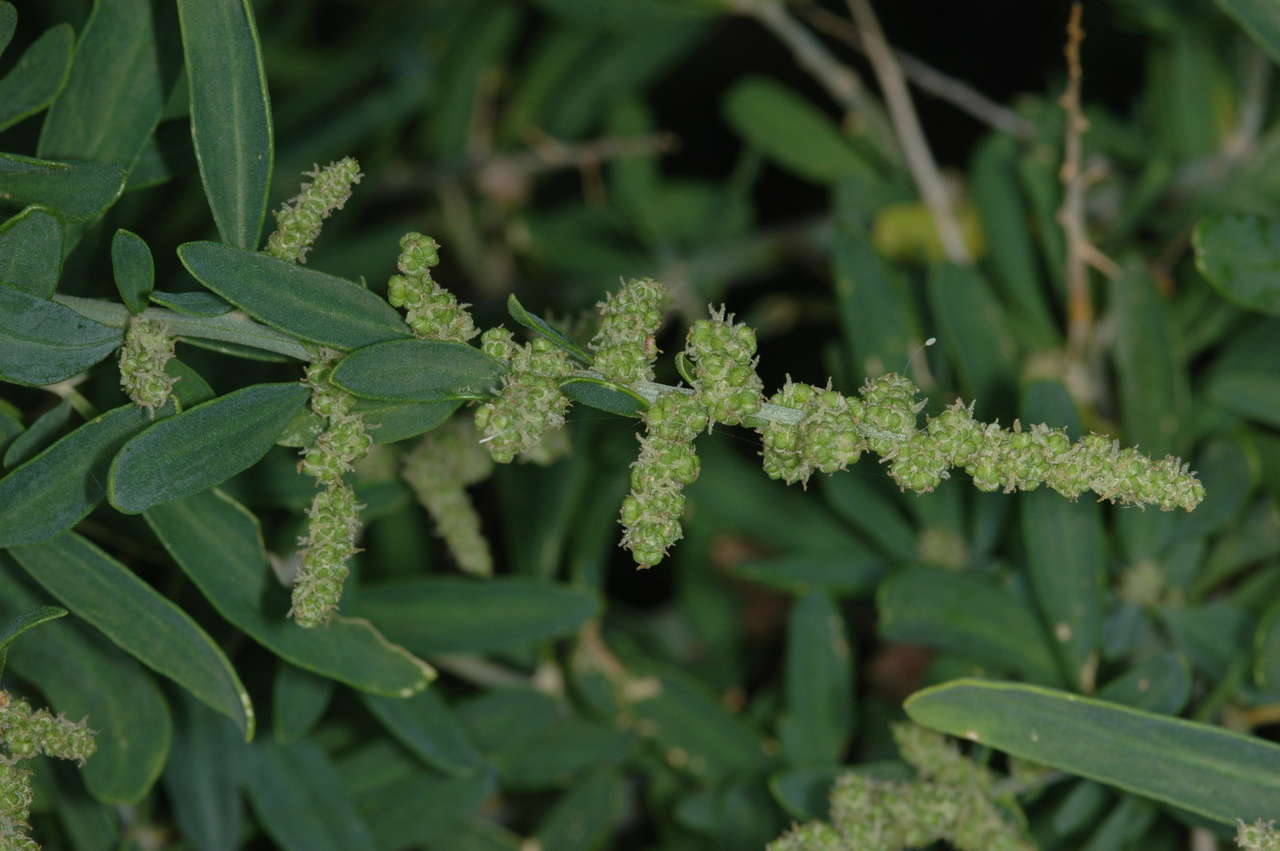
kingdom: Plantae
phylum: Tracheophyta
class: Magnoliopsida
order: Caryophyllales
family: Amaranthaceae
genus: Chenopodium
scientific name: Chenopodium nitrariaceum
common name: Nitre goosefoot
